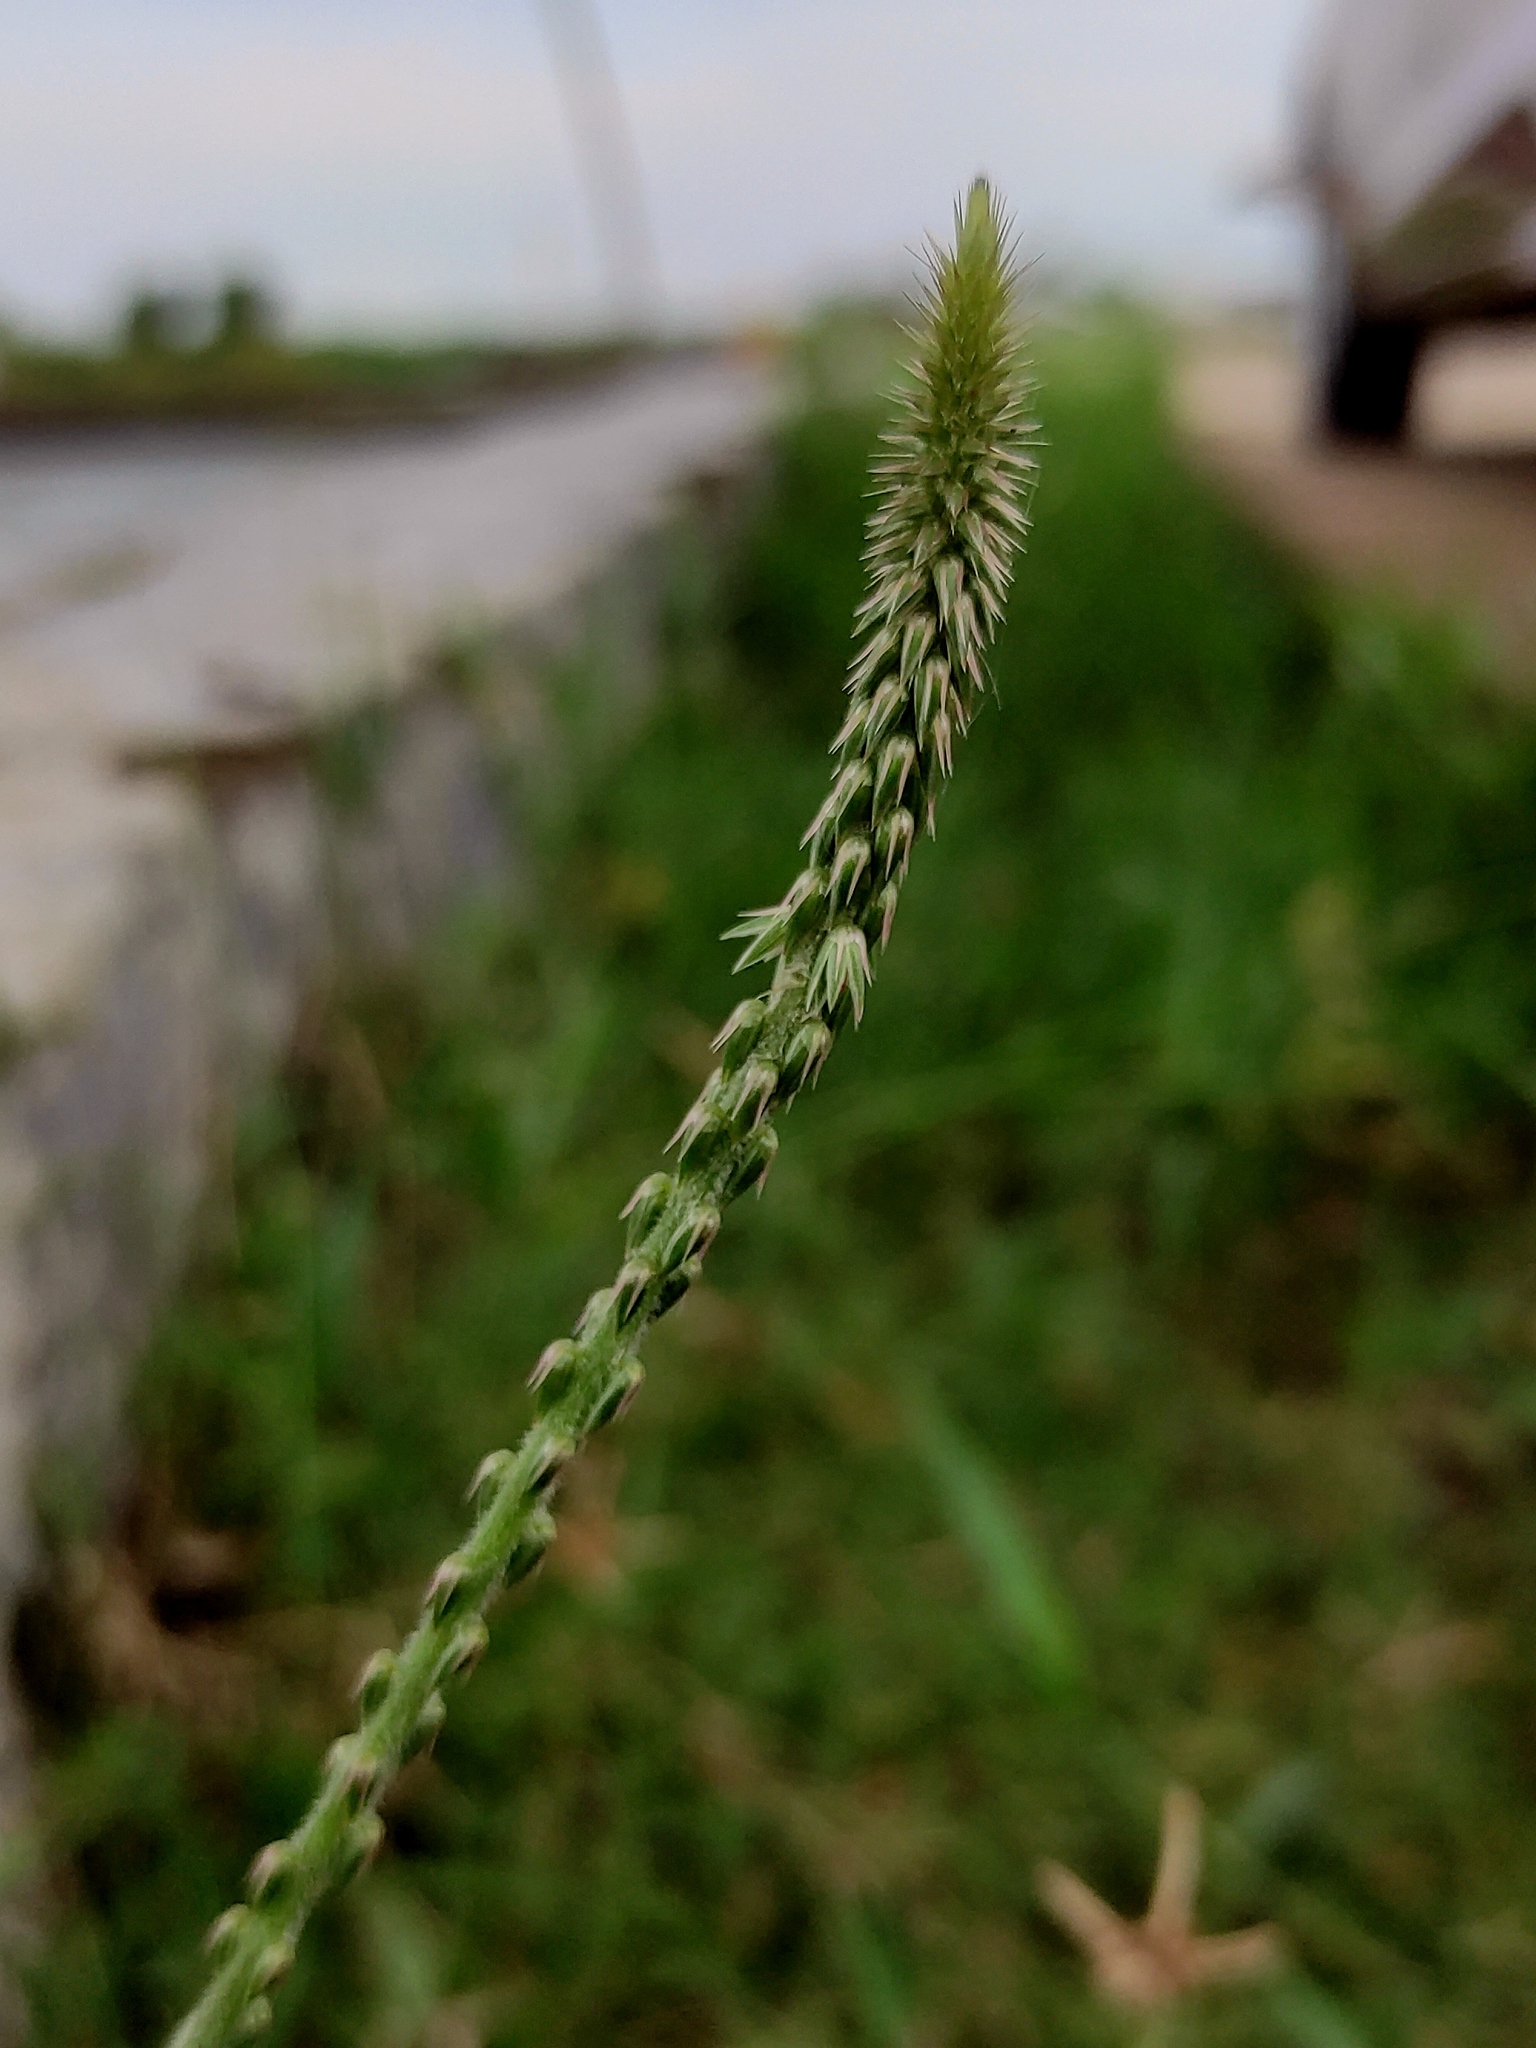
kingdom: Plantae
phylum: Tracheophyta
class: Magnoliopsida
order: Caryophyllales
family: Amaranthaceae
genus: Achyranthes
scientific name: Achyranthes aspera
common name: Devil's horsewhip
